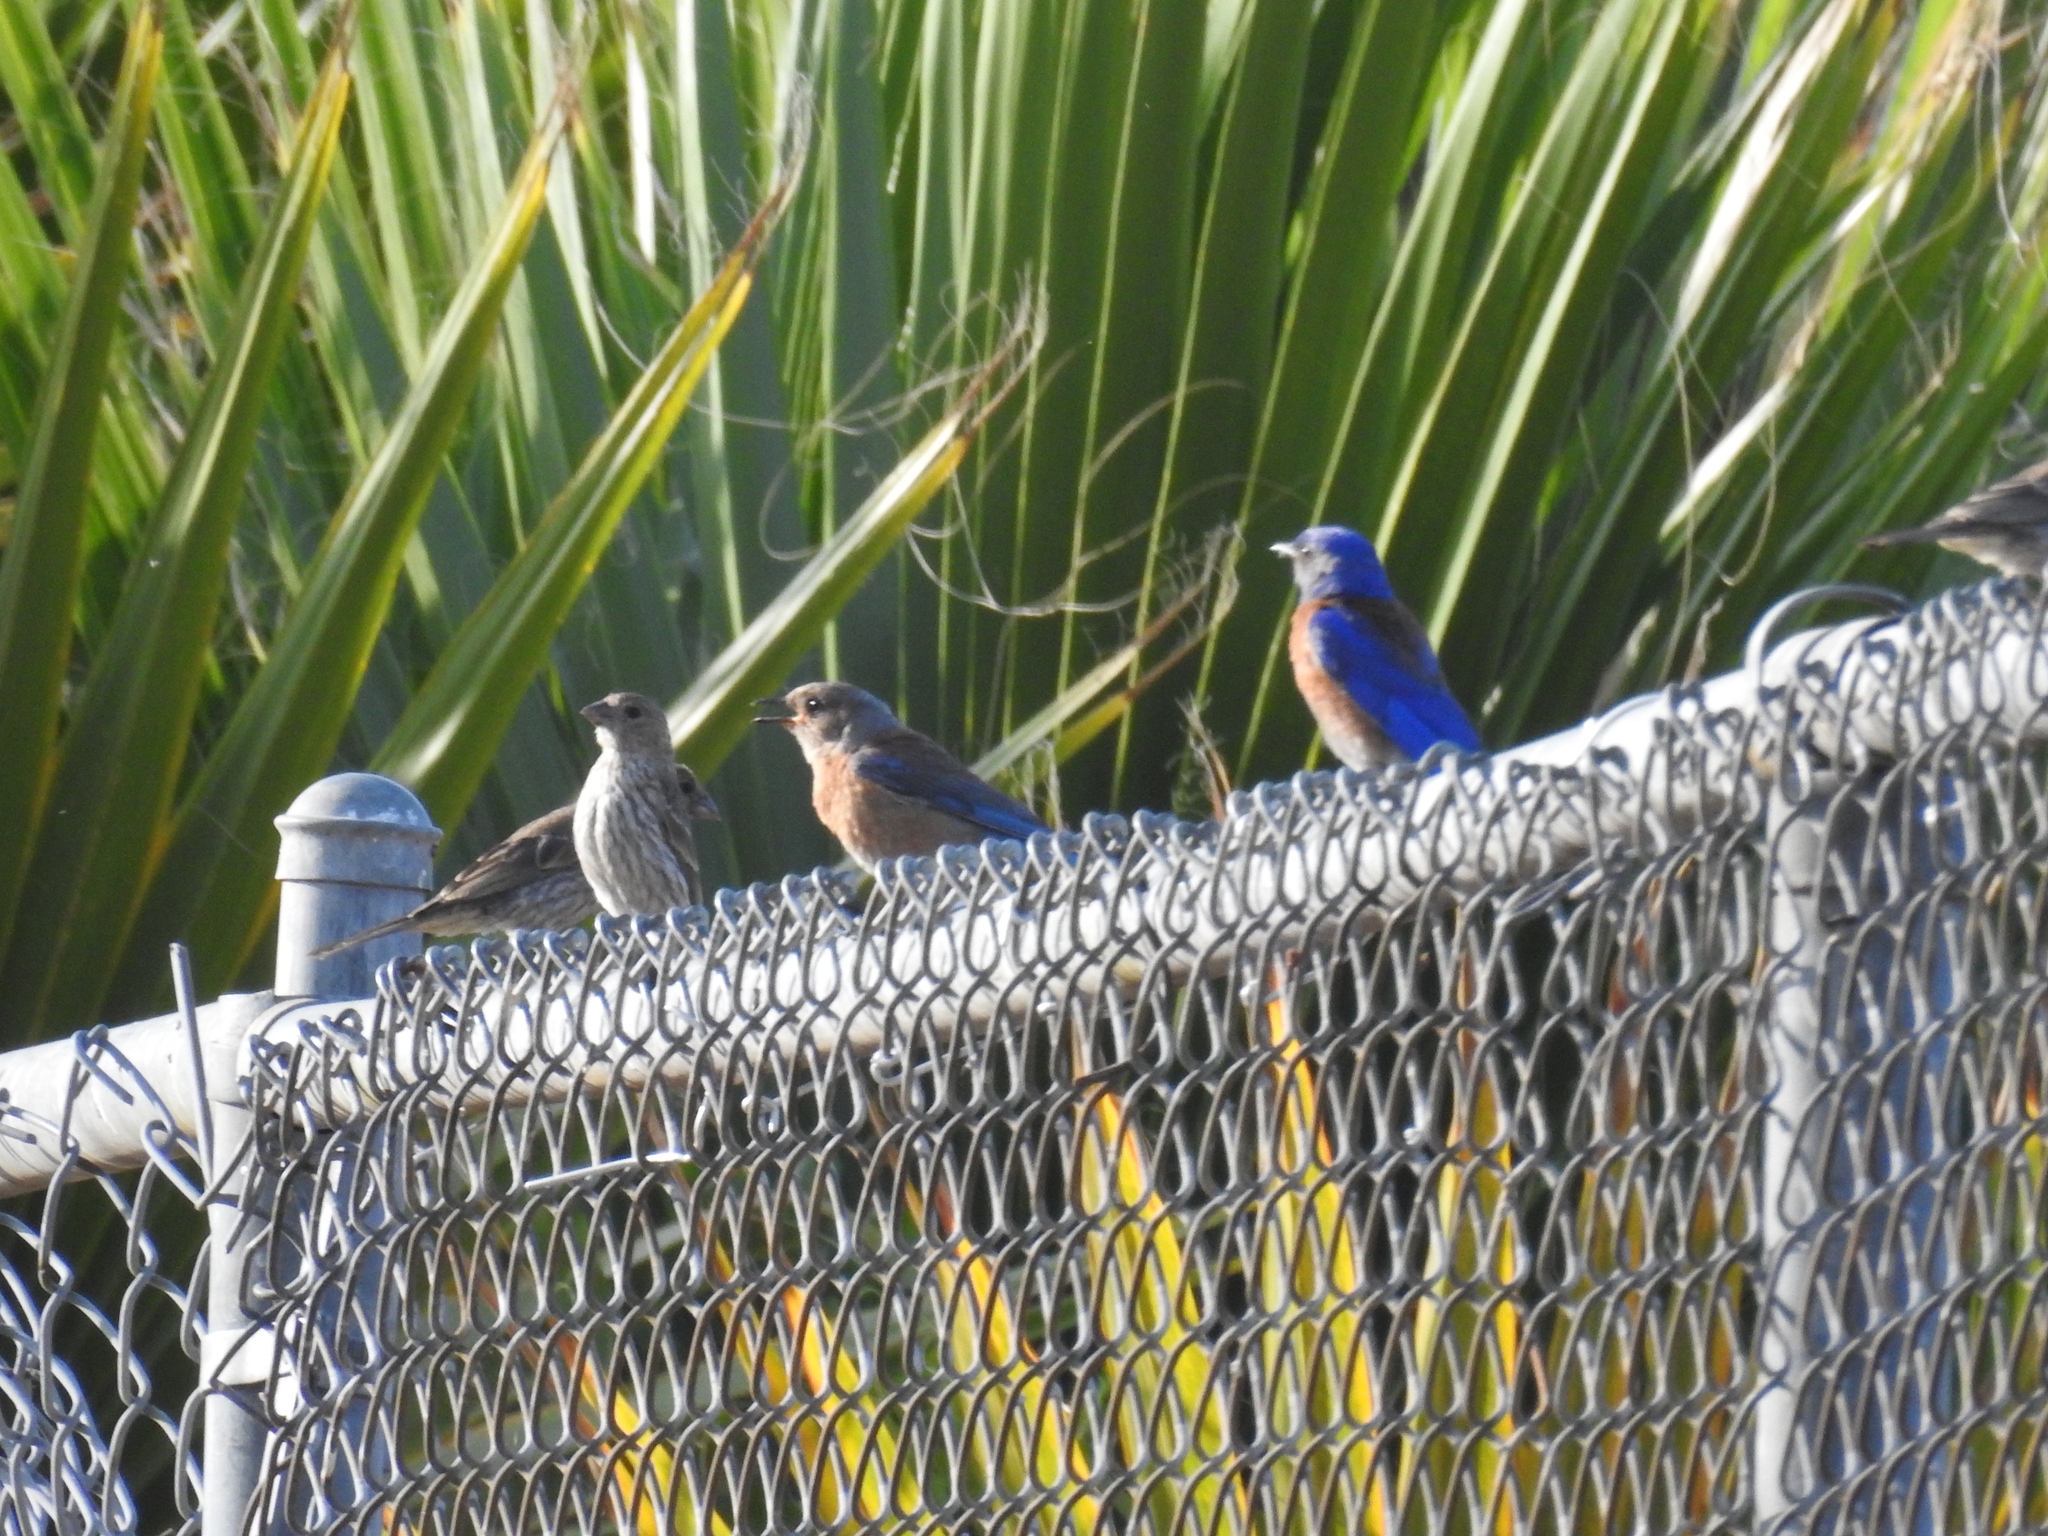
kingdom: Animalia
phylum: Chordata
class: Aves
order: Passeriformes
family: Turdidae
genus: Sialia
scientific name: Sialia mexicana
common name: Western bluebird
